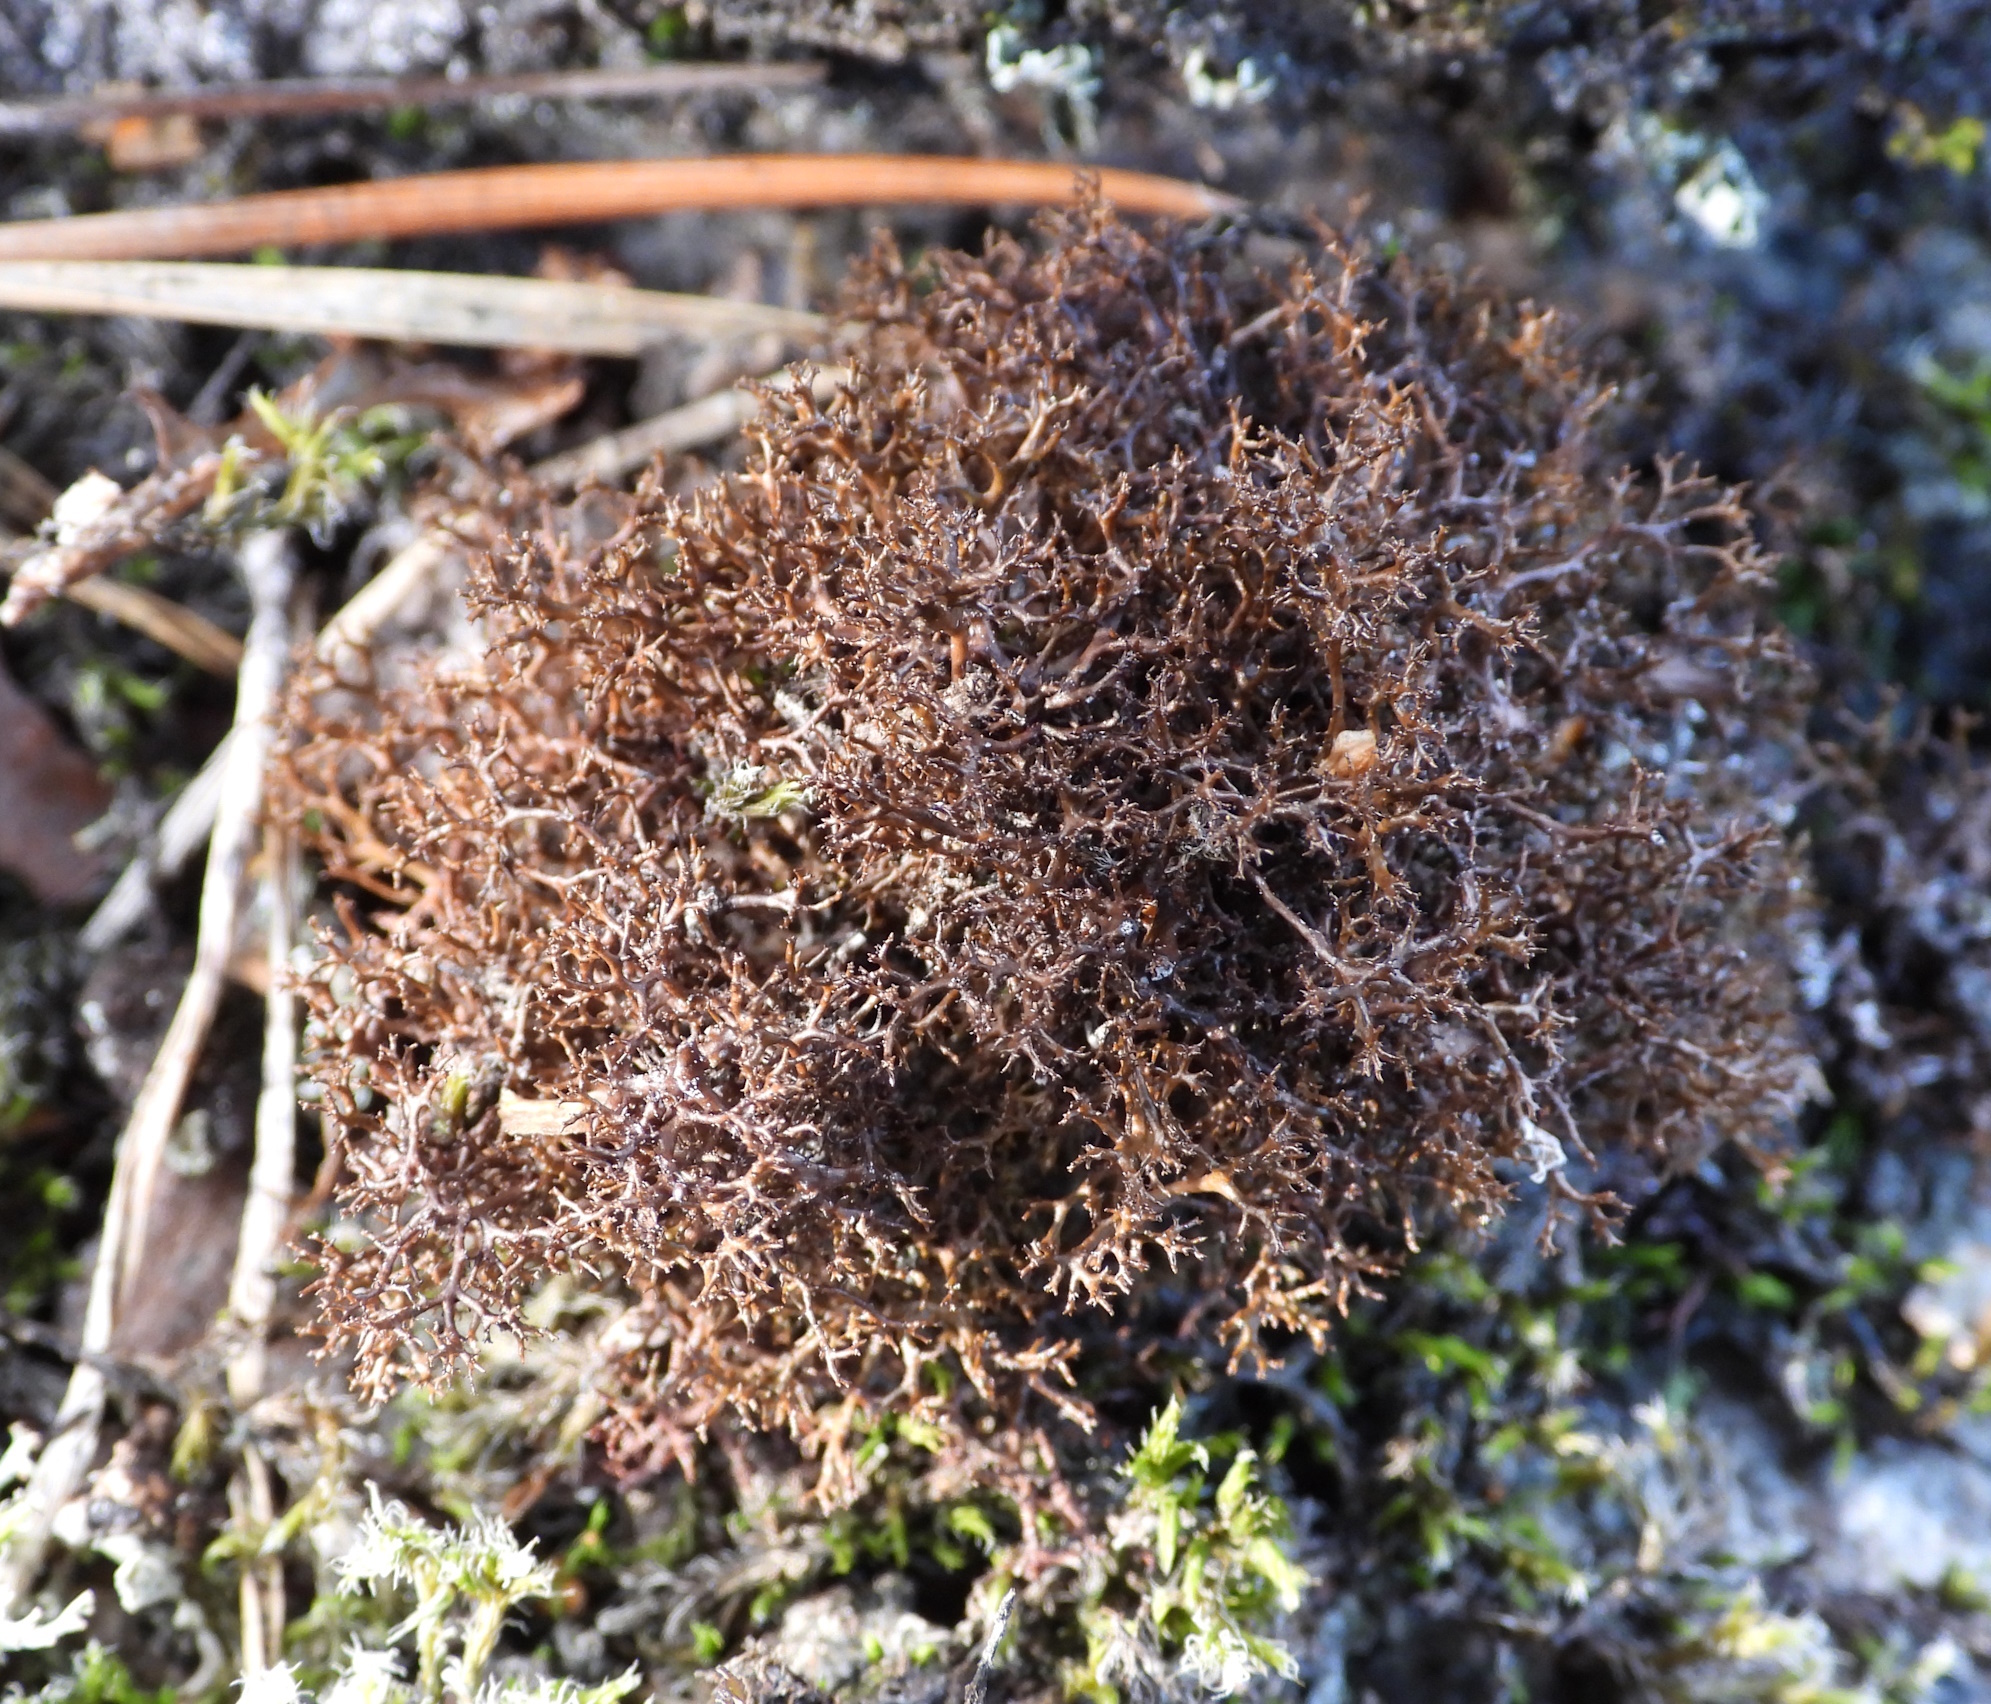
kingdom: Fungi
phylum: Ascomycota
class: Lecanoromycetes
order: Lecanorales
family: Parmeliaceae
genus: Cetraria
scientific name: Cetraria muricata
